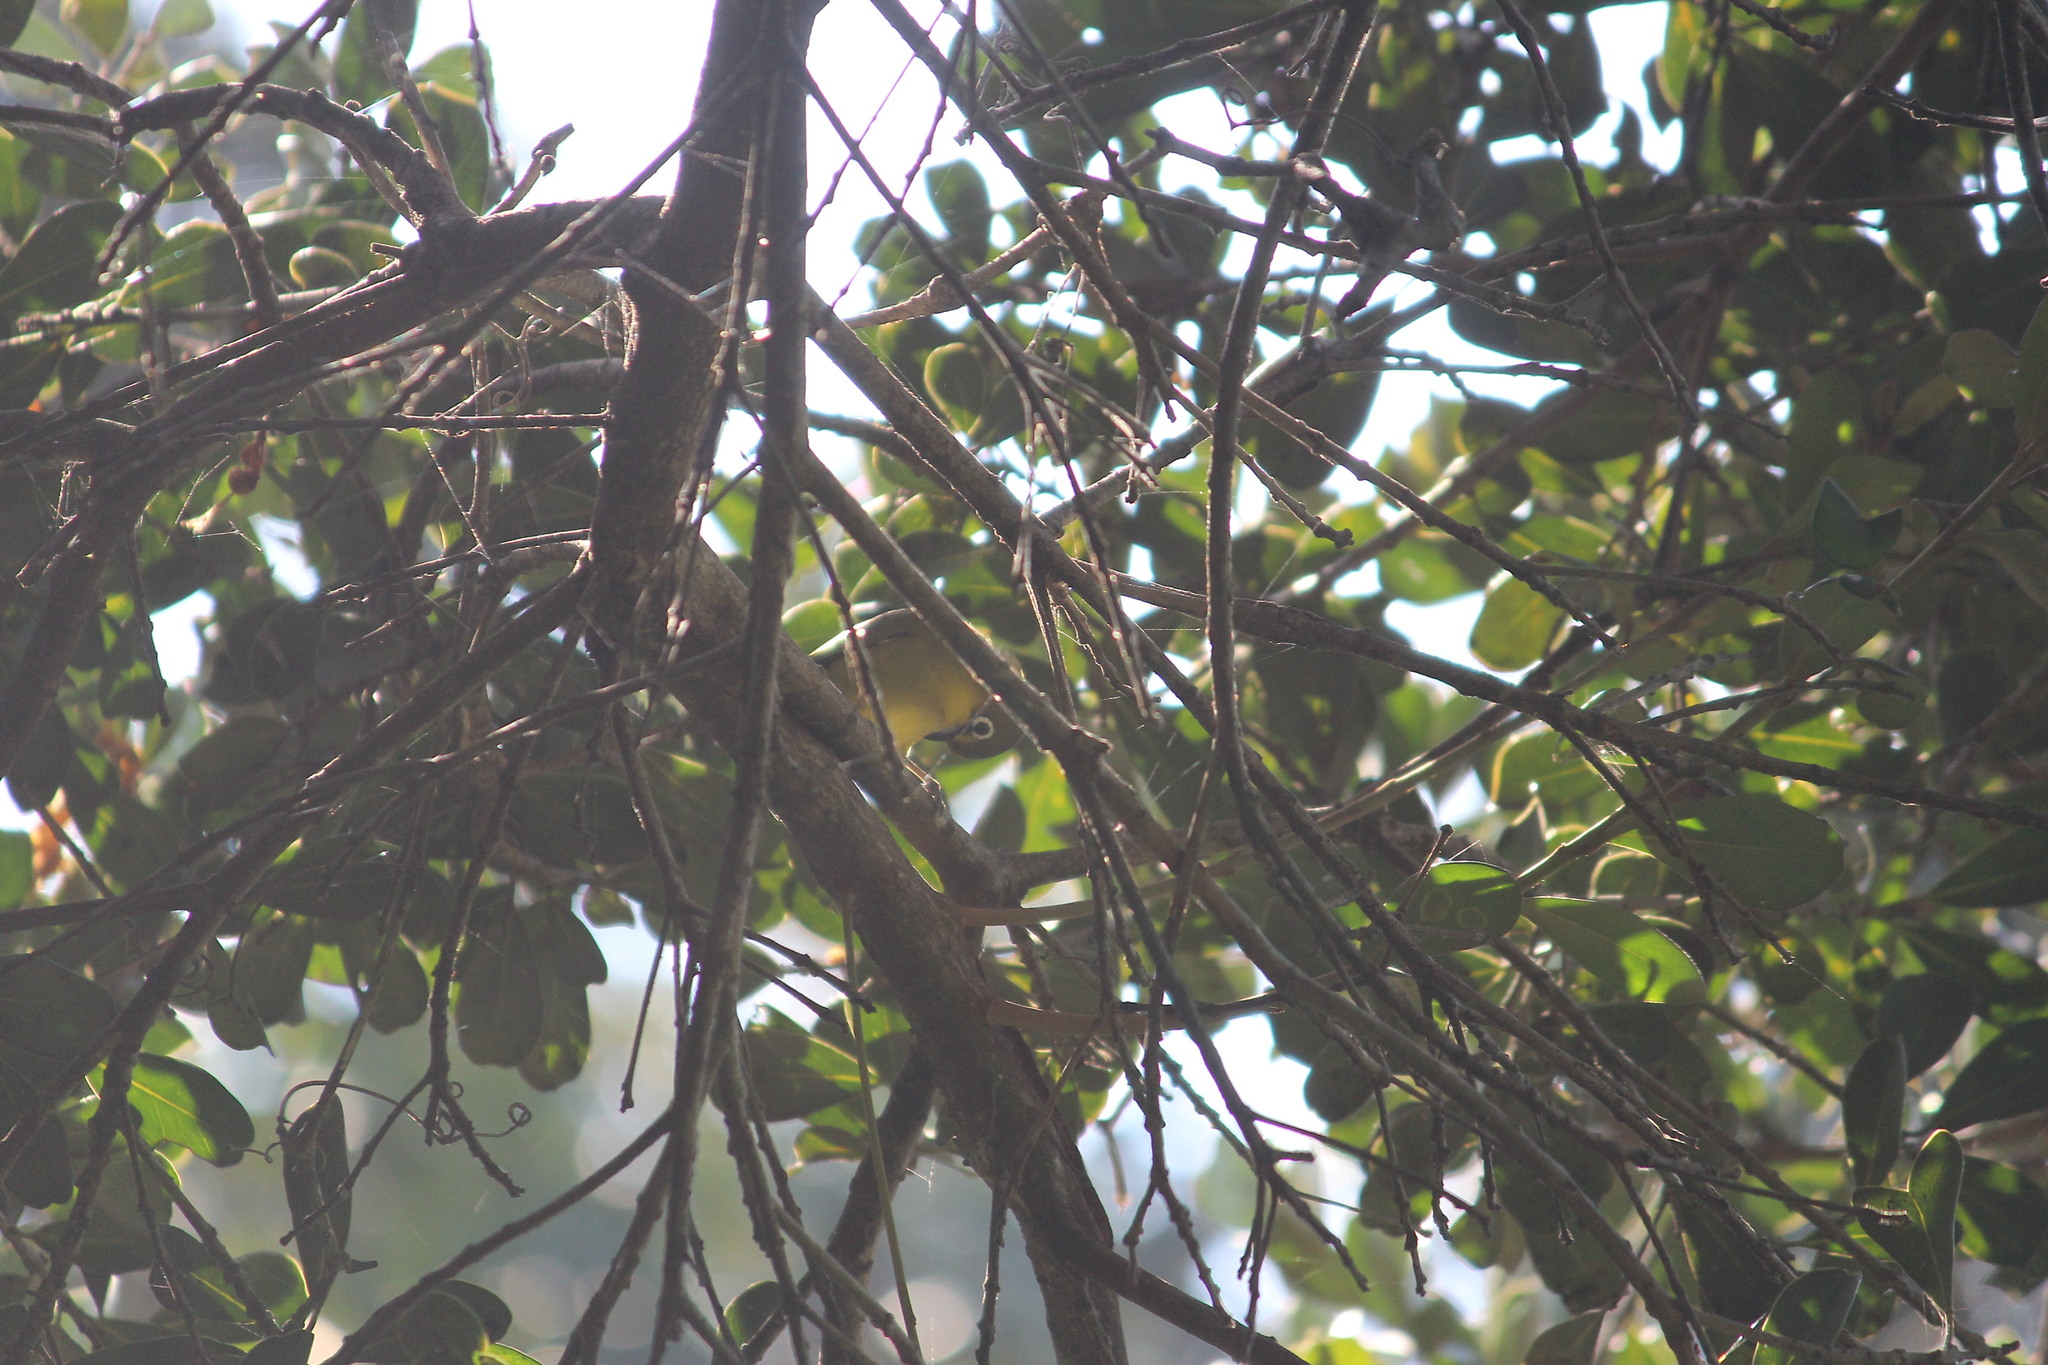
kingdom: Animalia
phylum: Chordata
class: Aves
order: Passeriformes
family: Zosteropidae
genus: Zosterops
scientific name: Zosterops virens
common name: Cape white-eye
